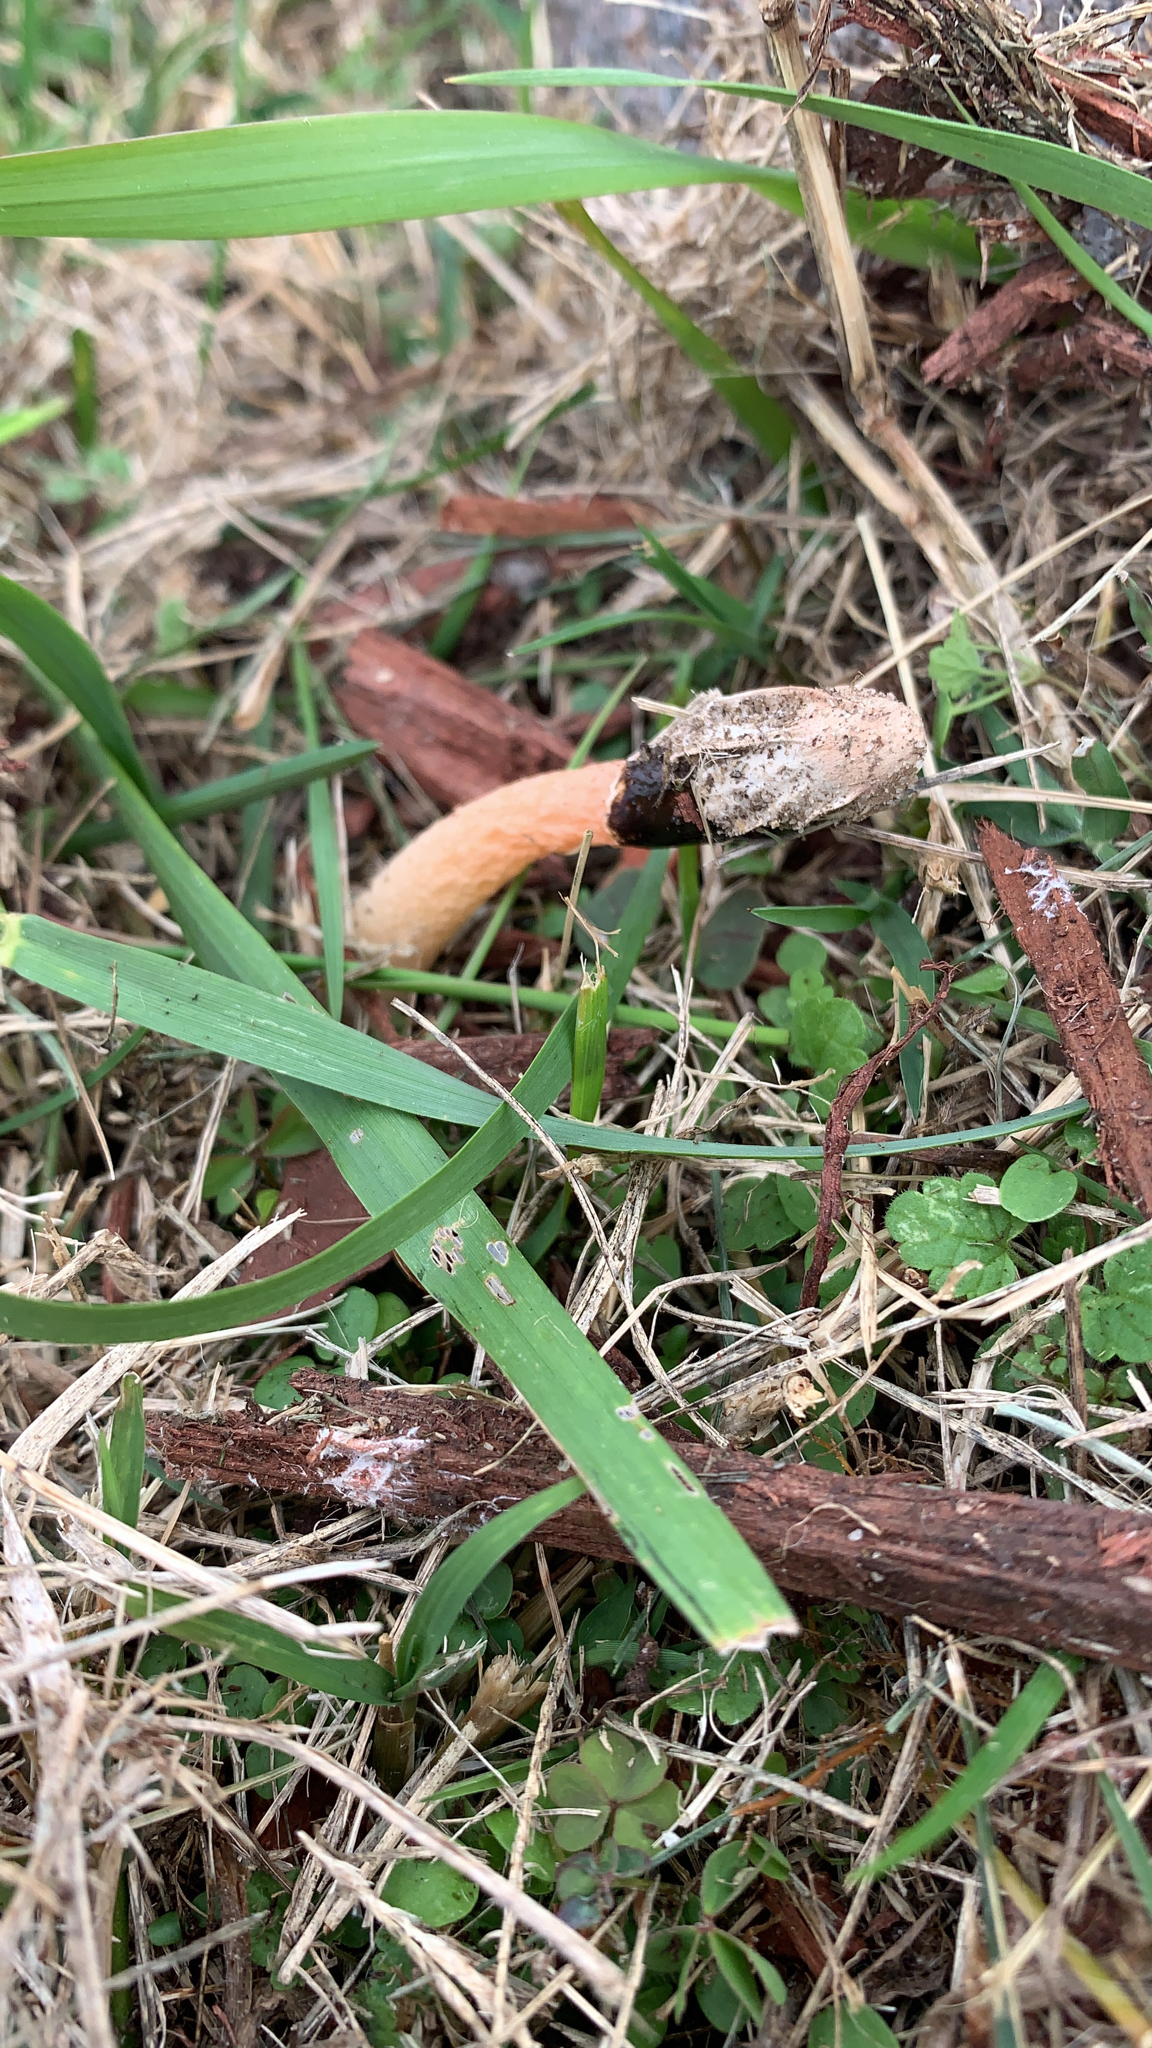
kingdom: Fungi
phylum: Basidiomycota
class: Agaricomycetes
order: Phallales
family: Phallaceae
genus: Phallus
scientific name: Phallus rugulosus
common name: Wrinkly stinkhorn
